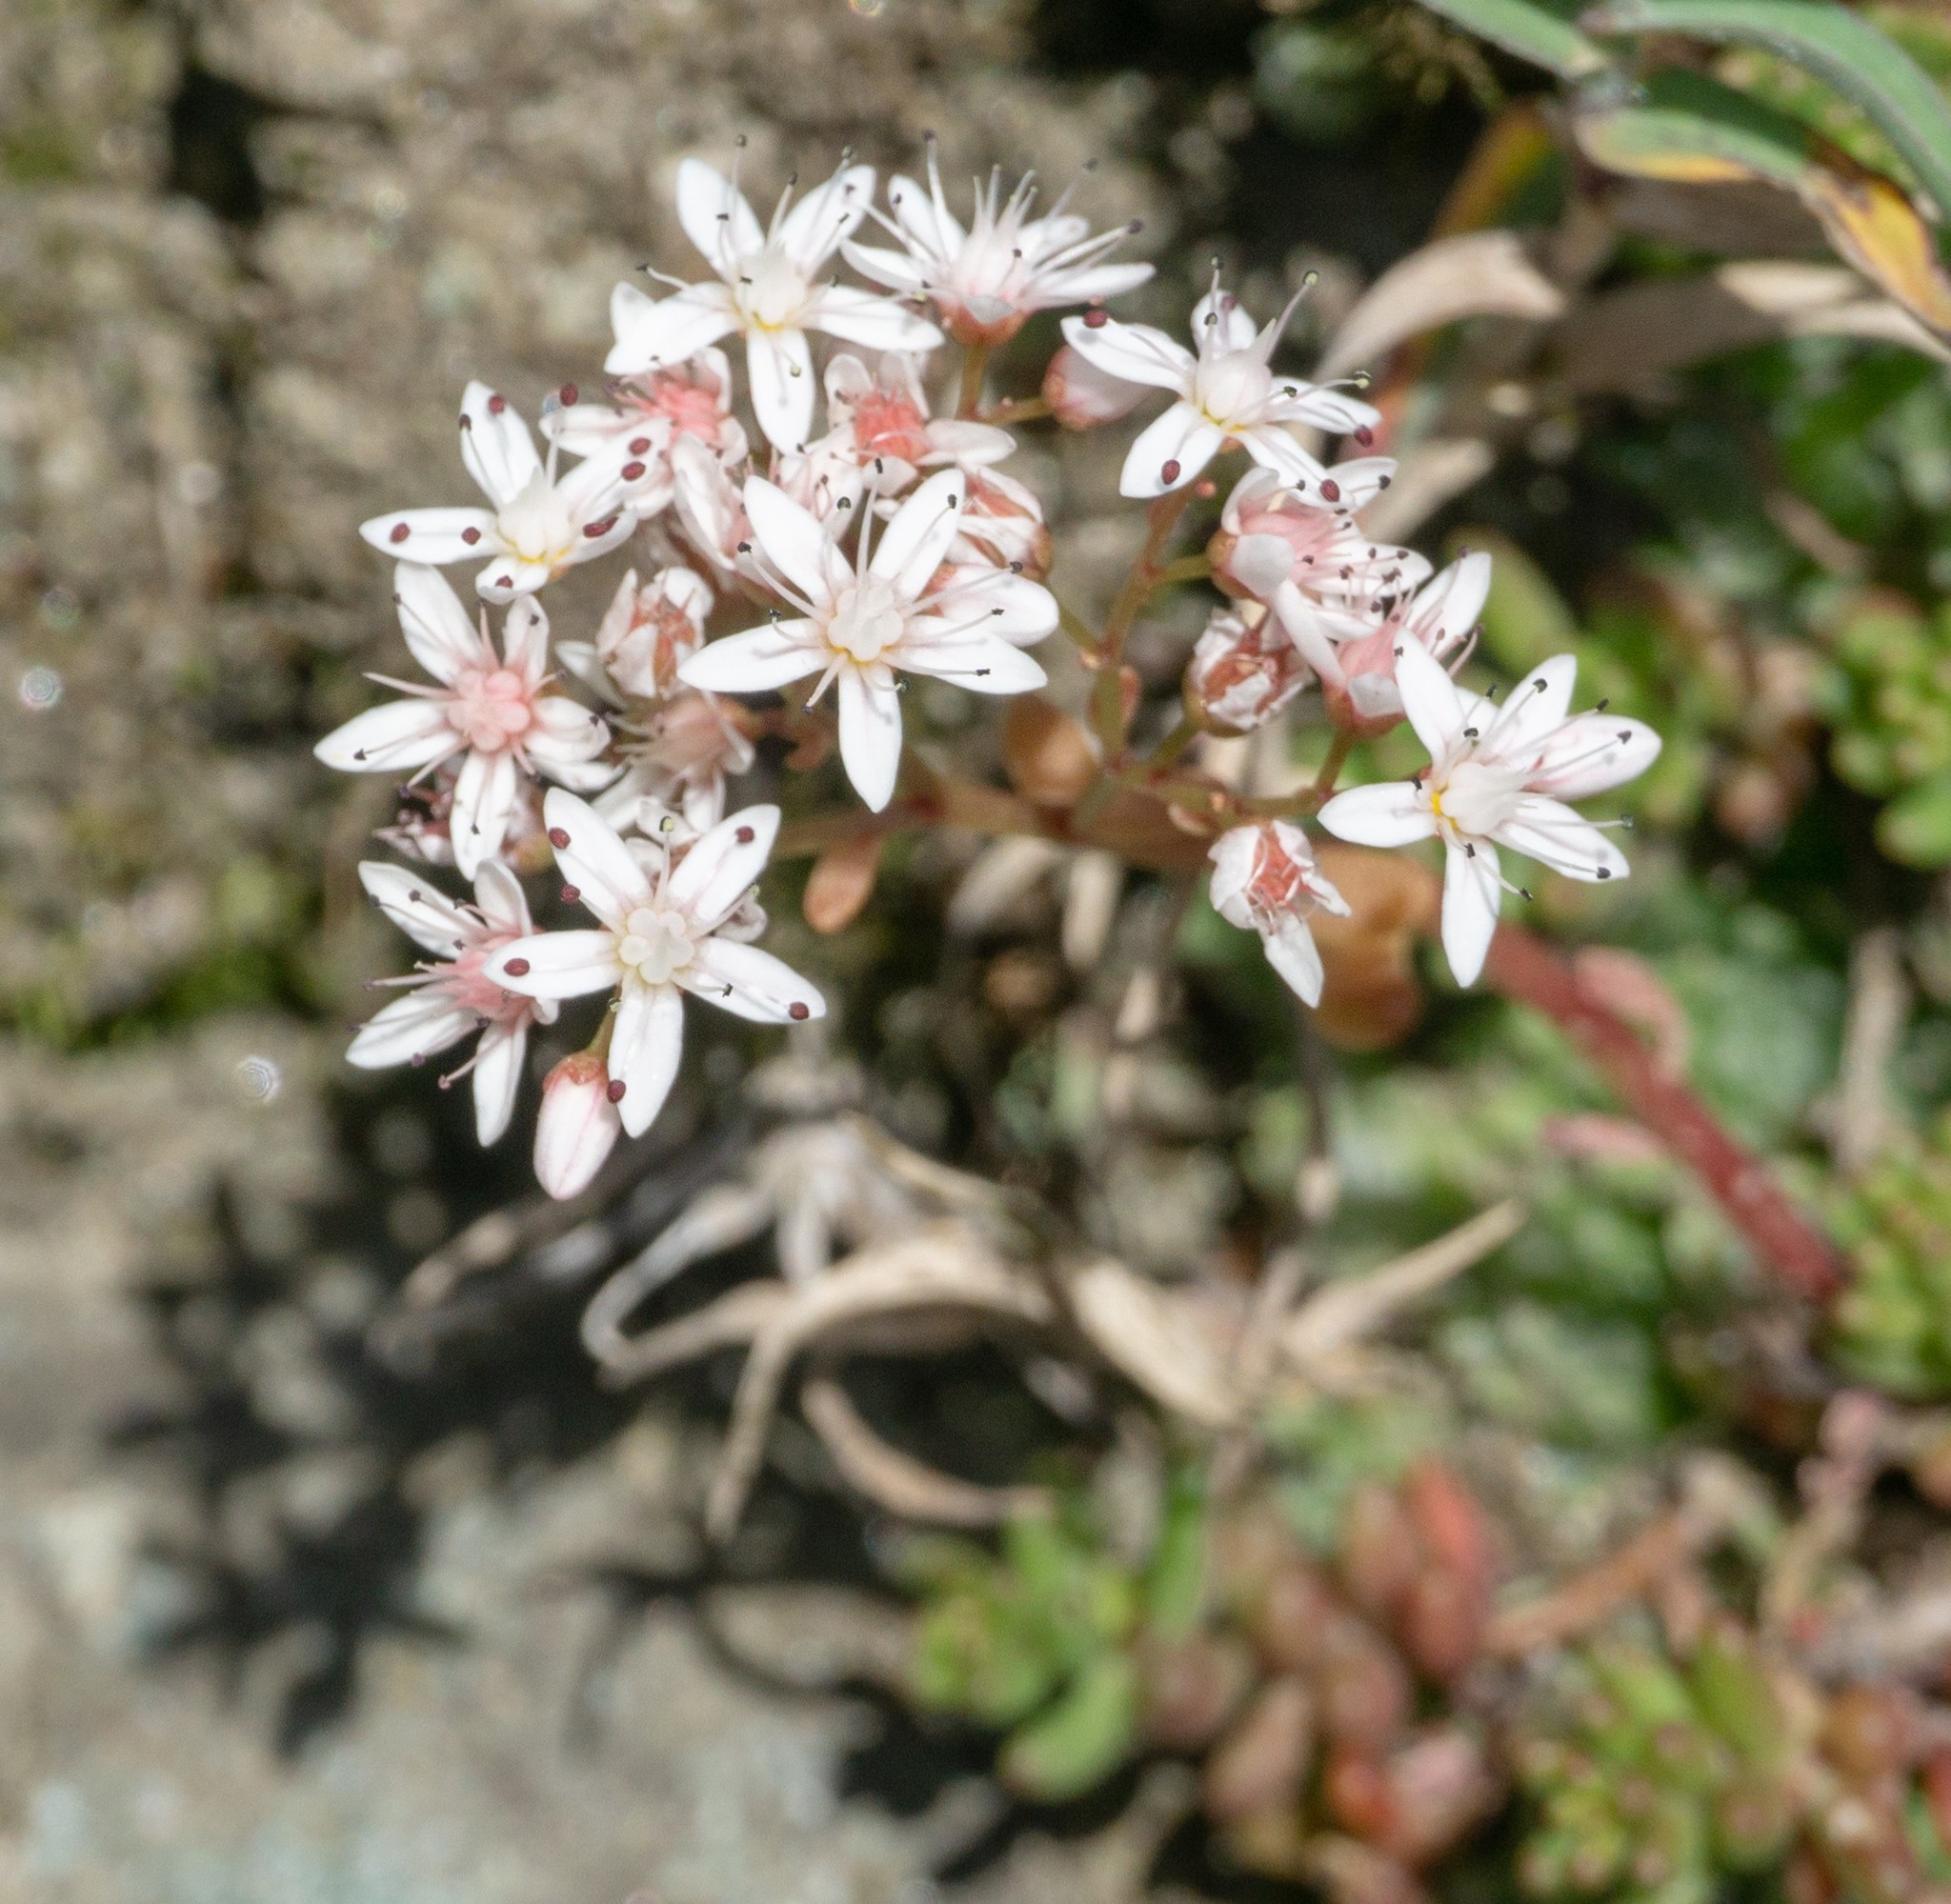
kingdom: Plantae
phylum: Tracheophyta
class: Magnoliopsida
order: Saxifragales
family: Crassulaceae
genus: Sedum
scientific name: Sedum album
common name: White stonecrop
